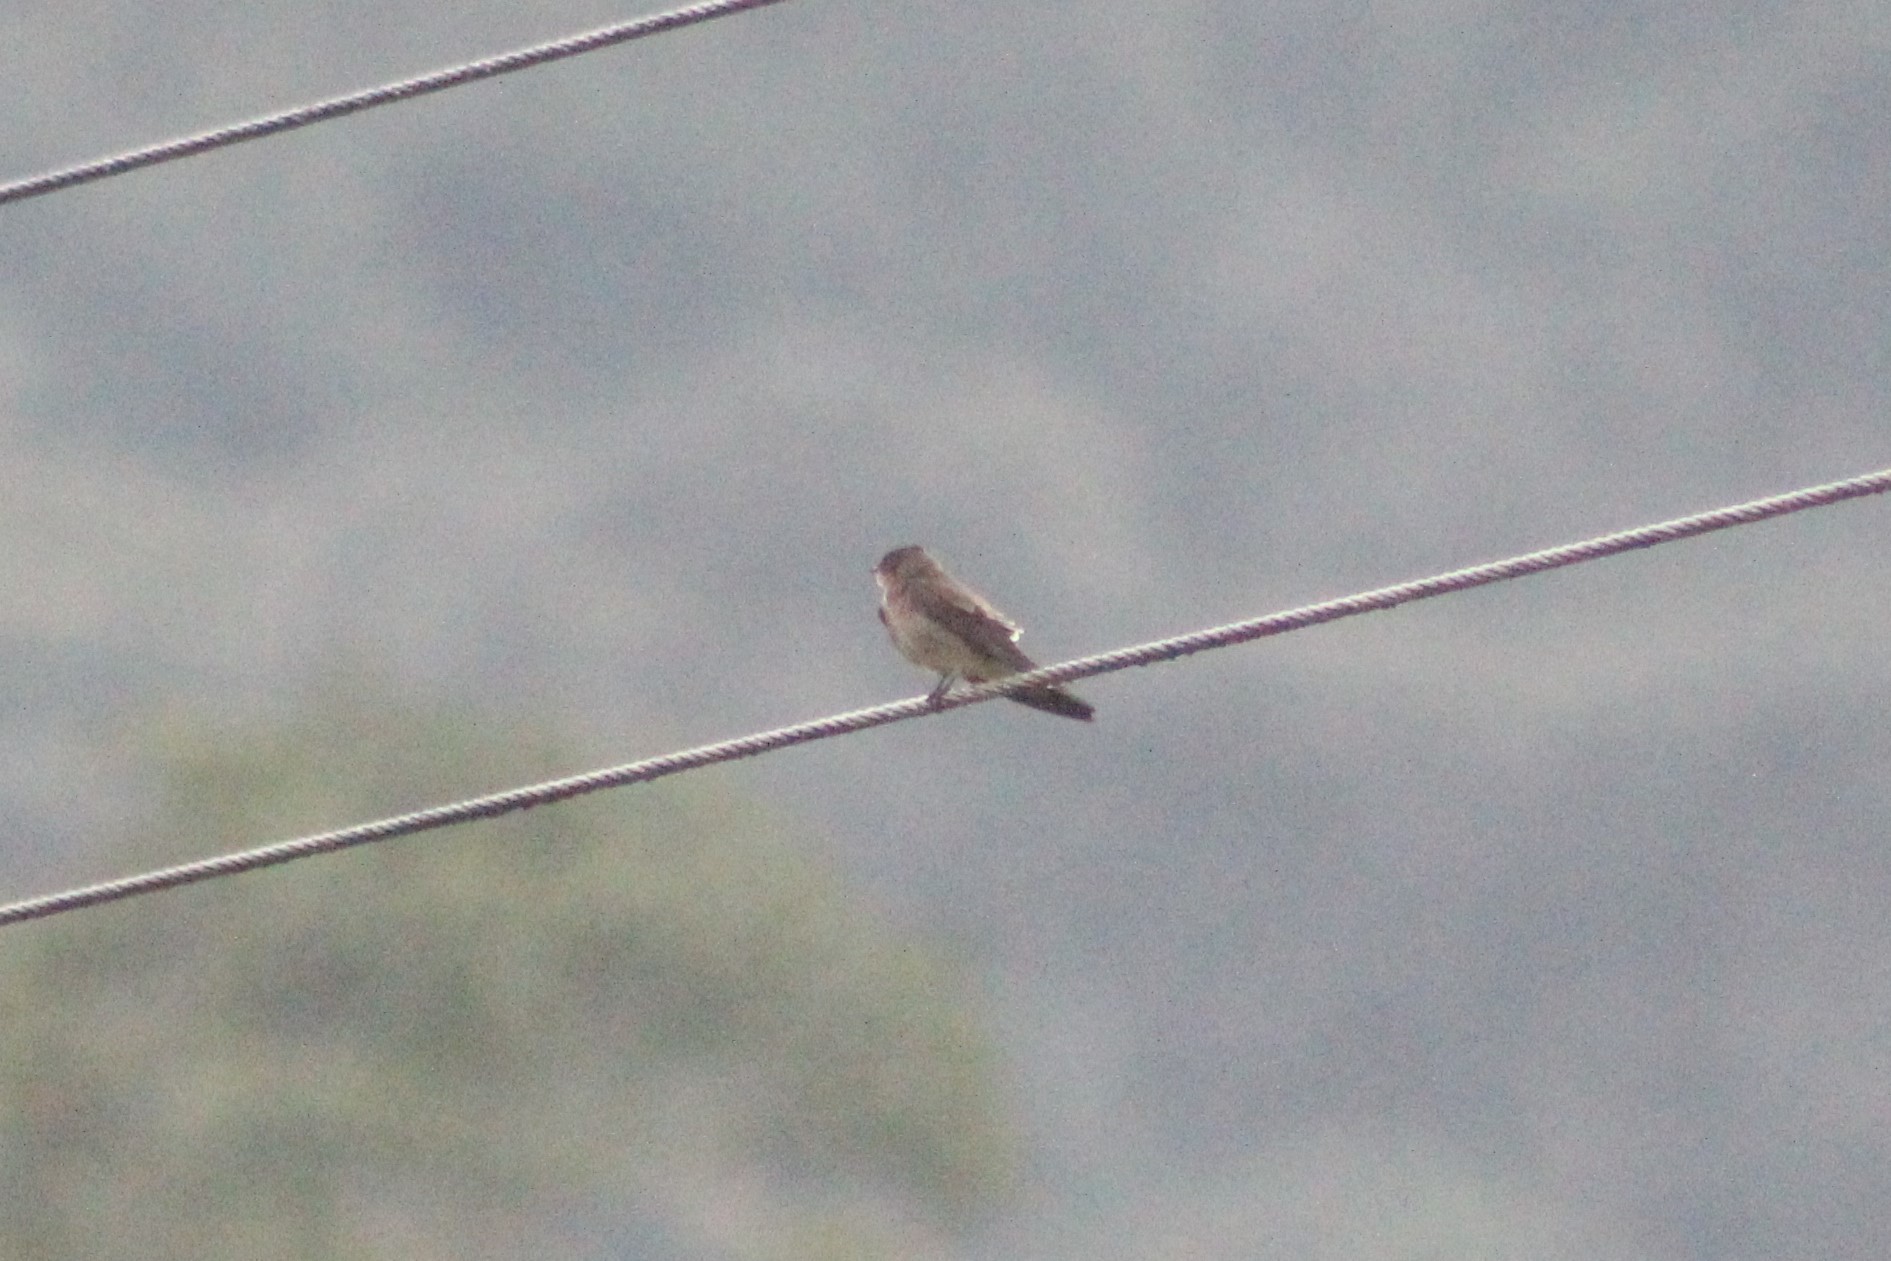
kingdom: Animalia
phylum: Chordata
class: Aves
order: Passeriformes
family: Hirundinidae
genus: Stelgidopteryx
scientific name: Stelgidopteryx ruficollis
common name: Southern rough-winged swallow
